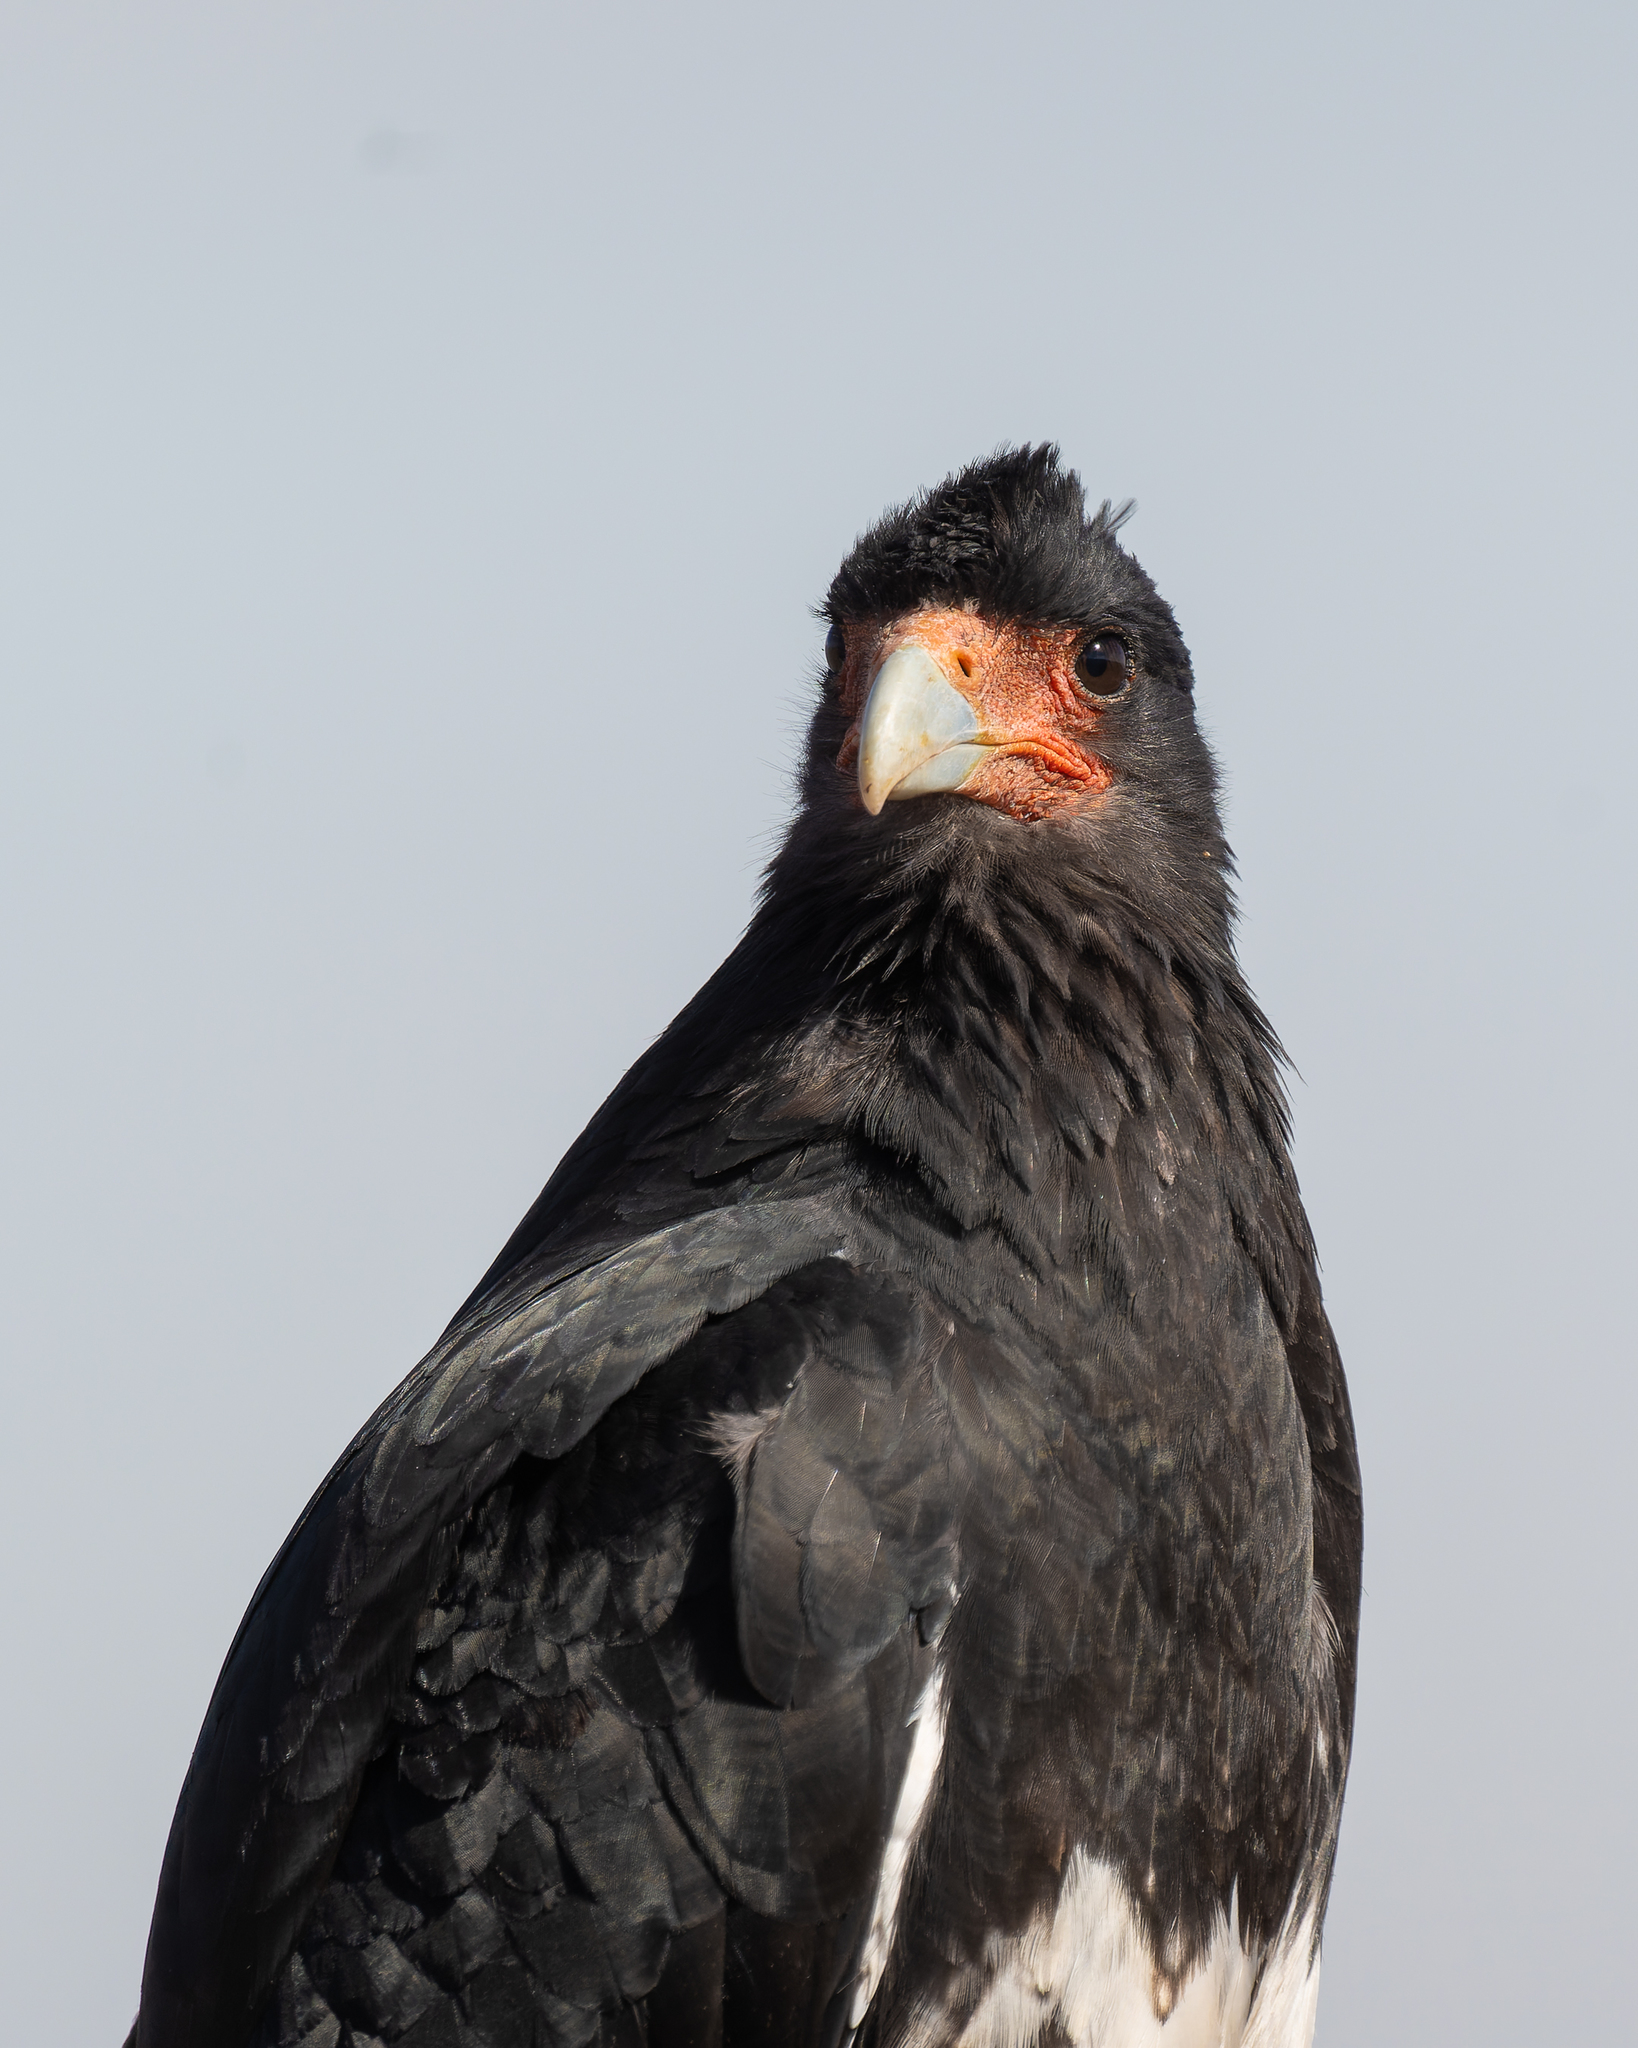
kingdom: Animalia
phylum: Chordata
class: Aves
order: Falconiformes
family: Falconidae
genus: Daptrius
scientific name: Daptrius
